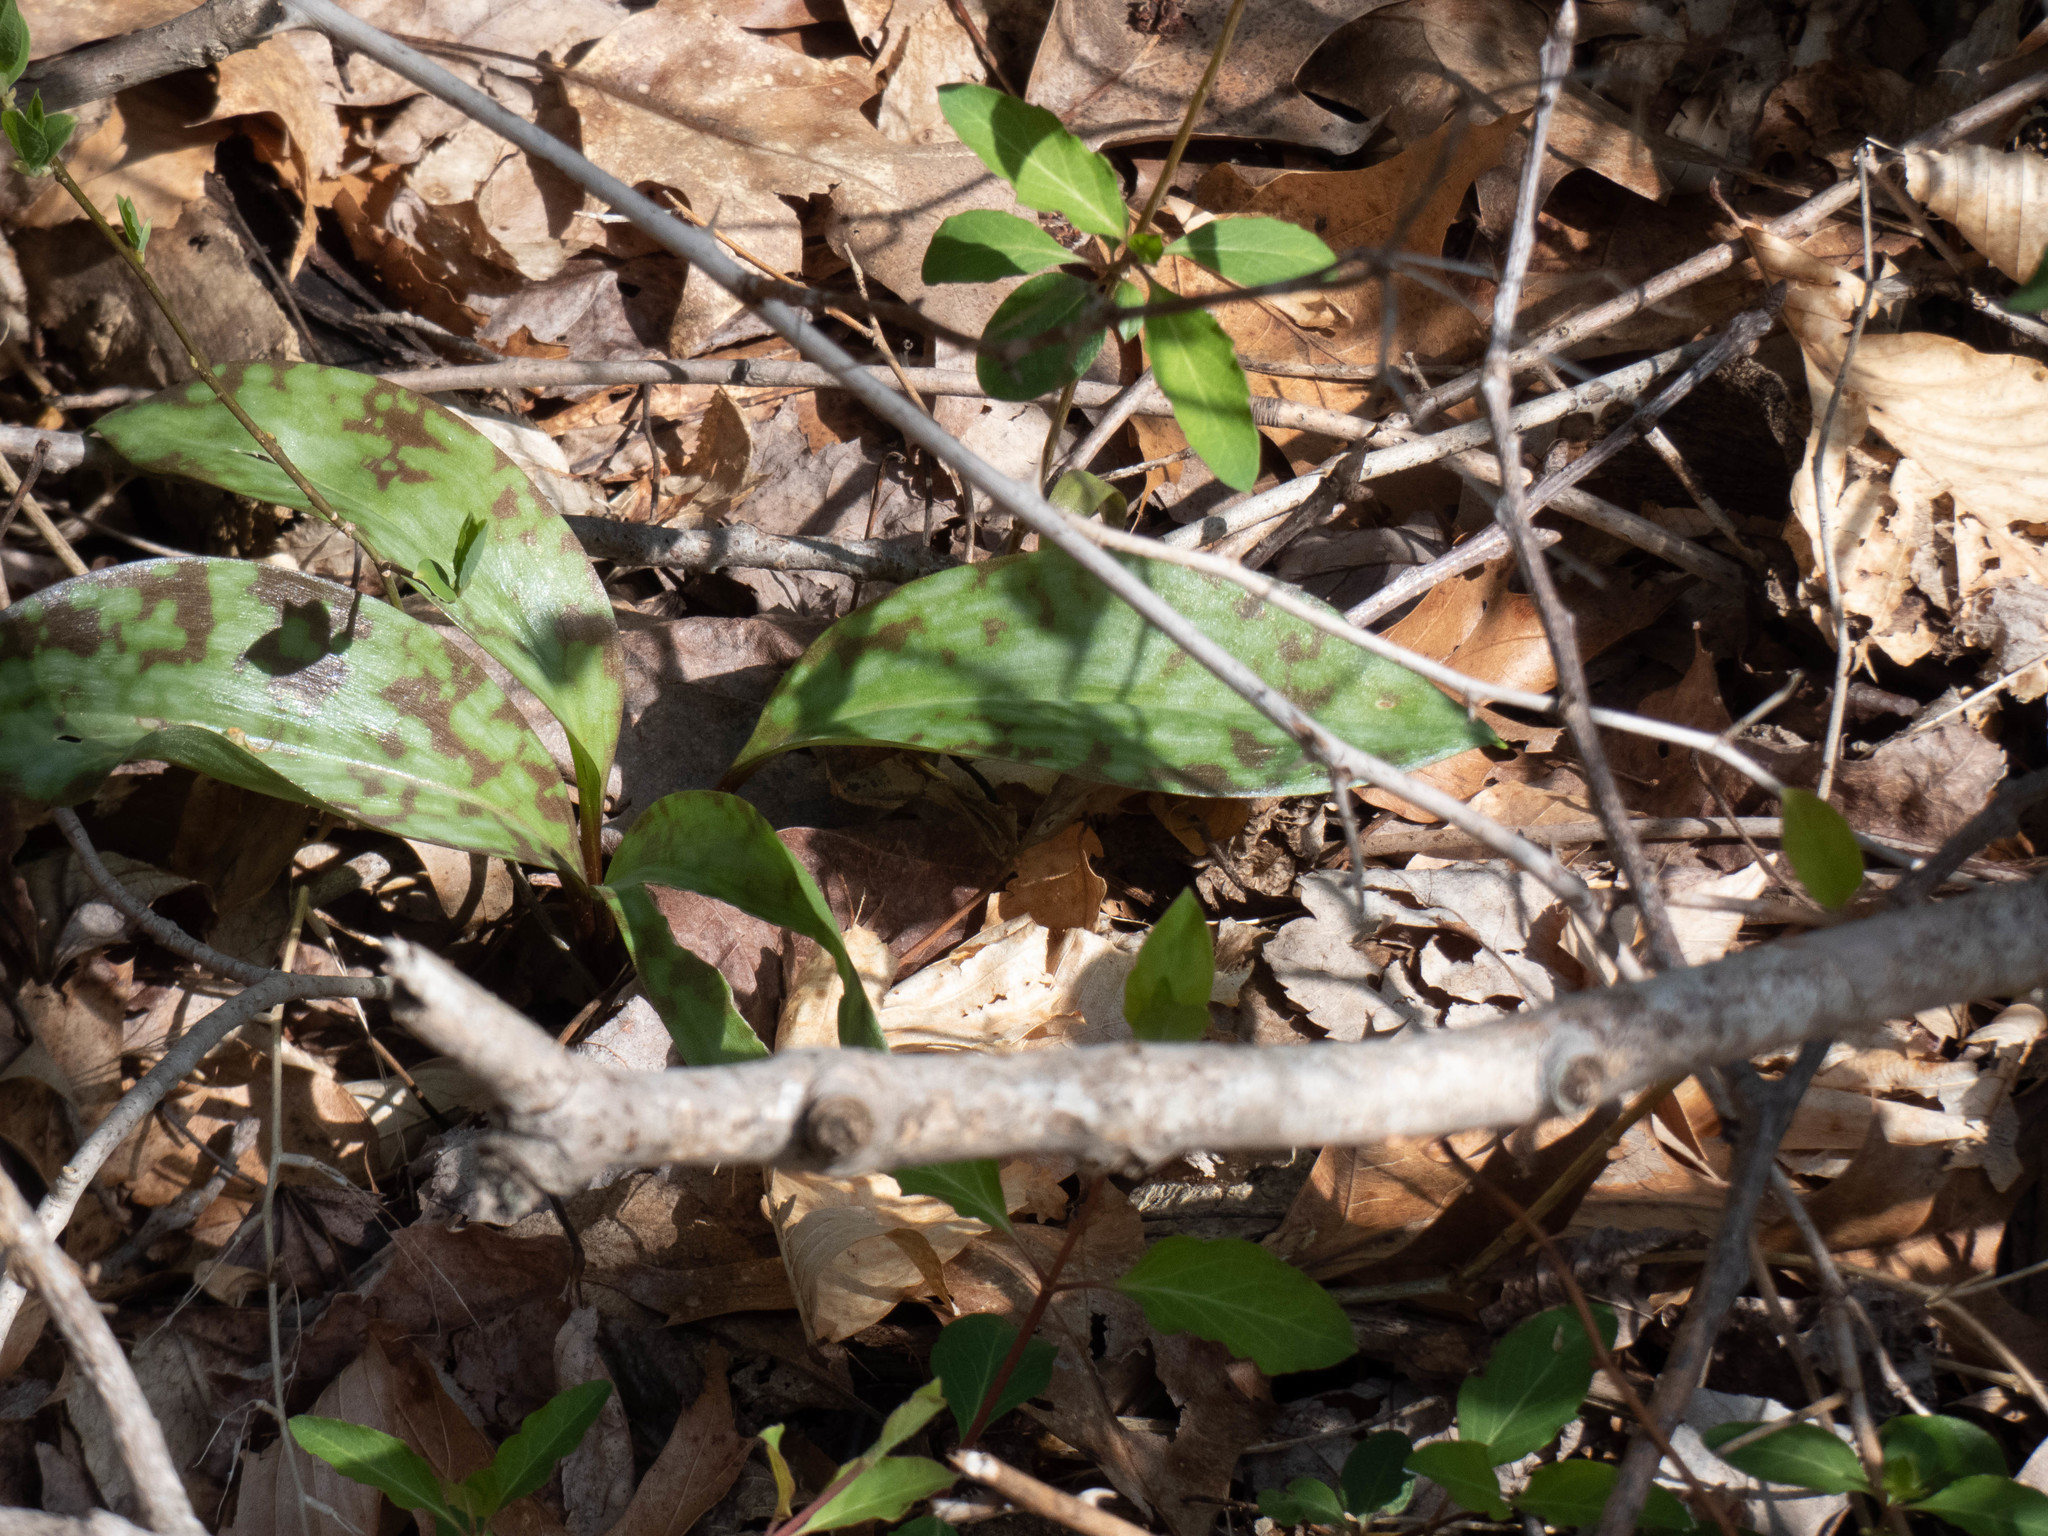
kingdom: Plantae
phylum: Tracheophyta
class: Liliopsida
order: Liliales
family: Liliaceae
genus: Erythronium
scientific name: Erythronium americanum
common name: Yellow adder's-tongue
